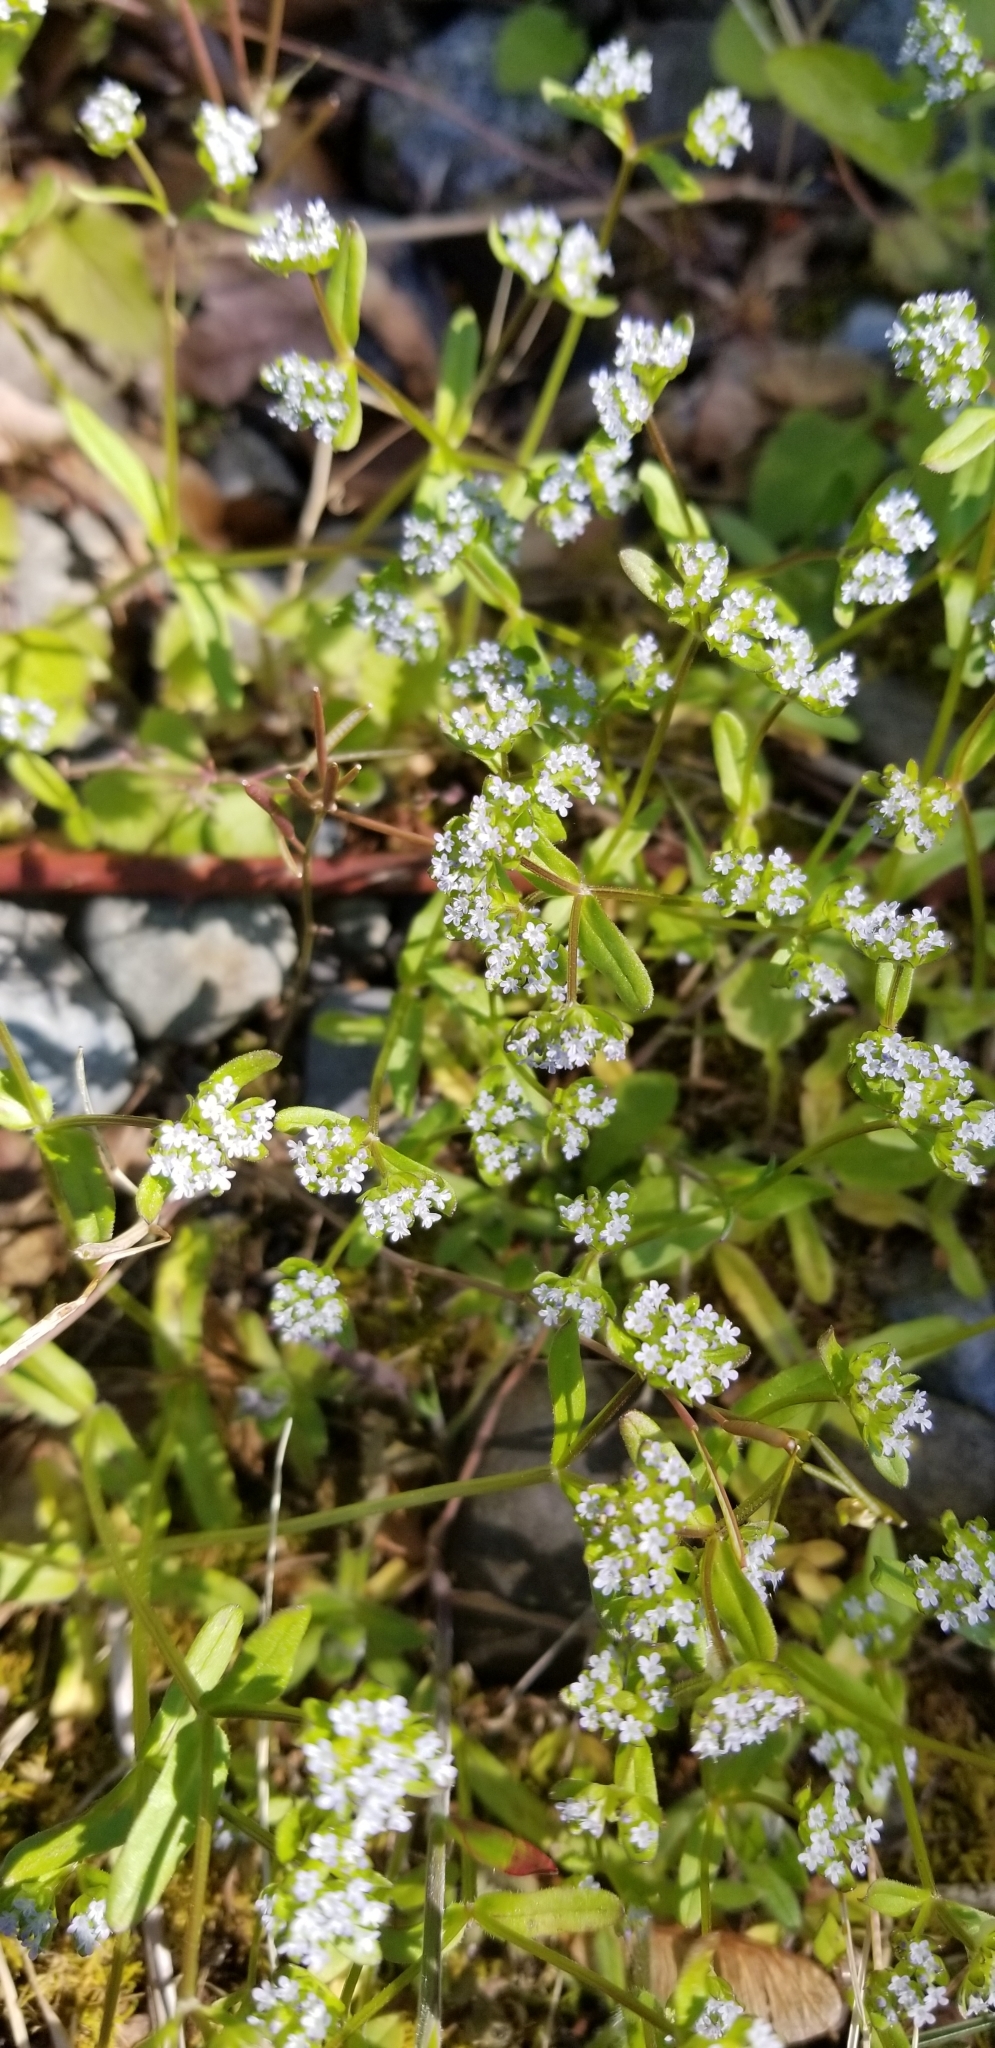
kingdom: Plantae
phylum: Tracheophyta
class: Magnoliopsida
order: Dipsacales
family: Caprifoliaceae
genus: Valerianella
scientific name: Valerianella locusta
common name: Common cornsalad
